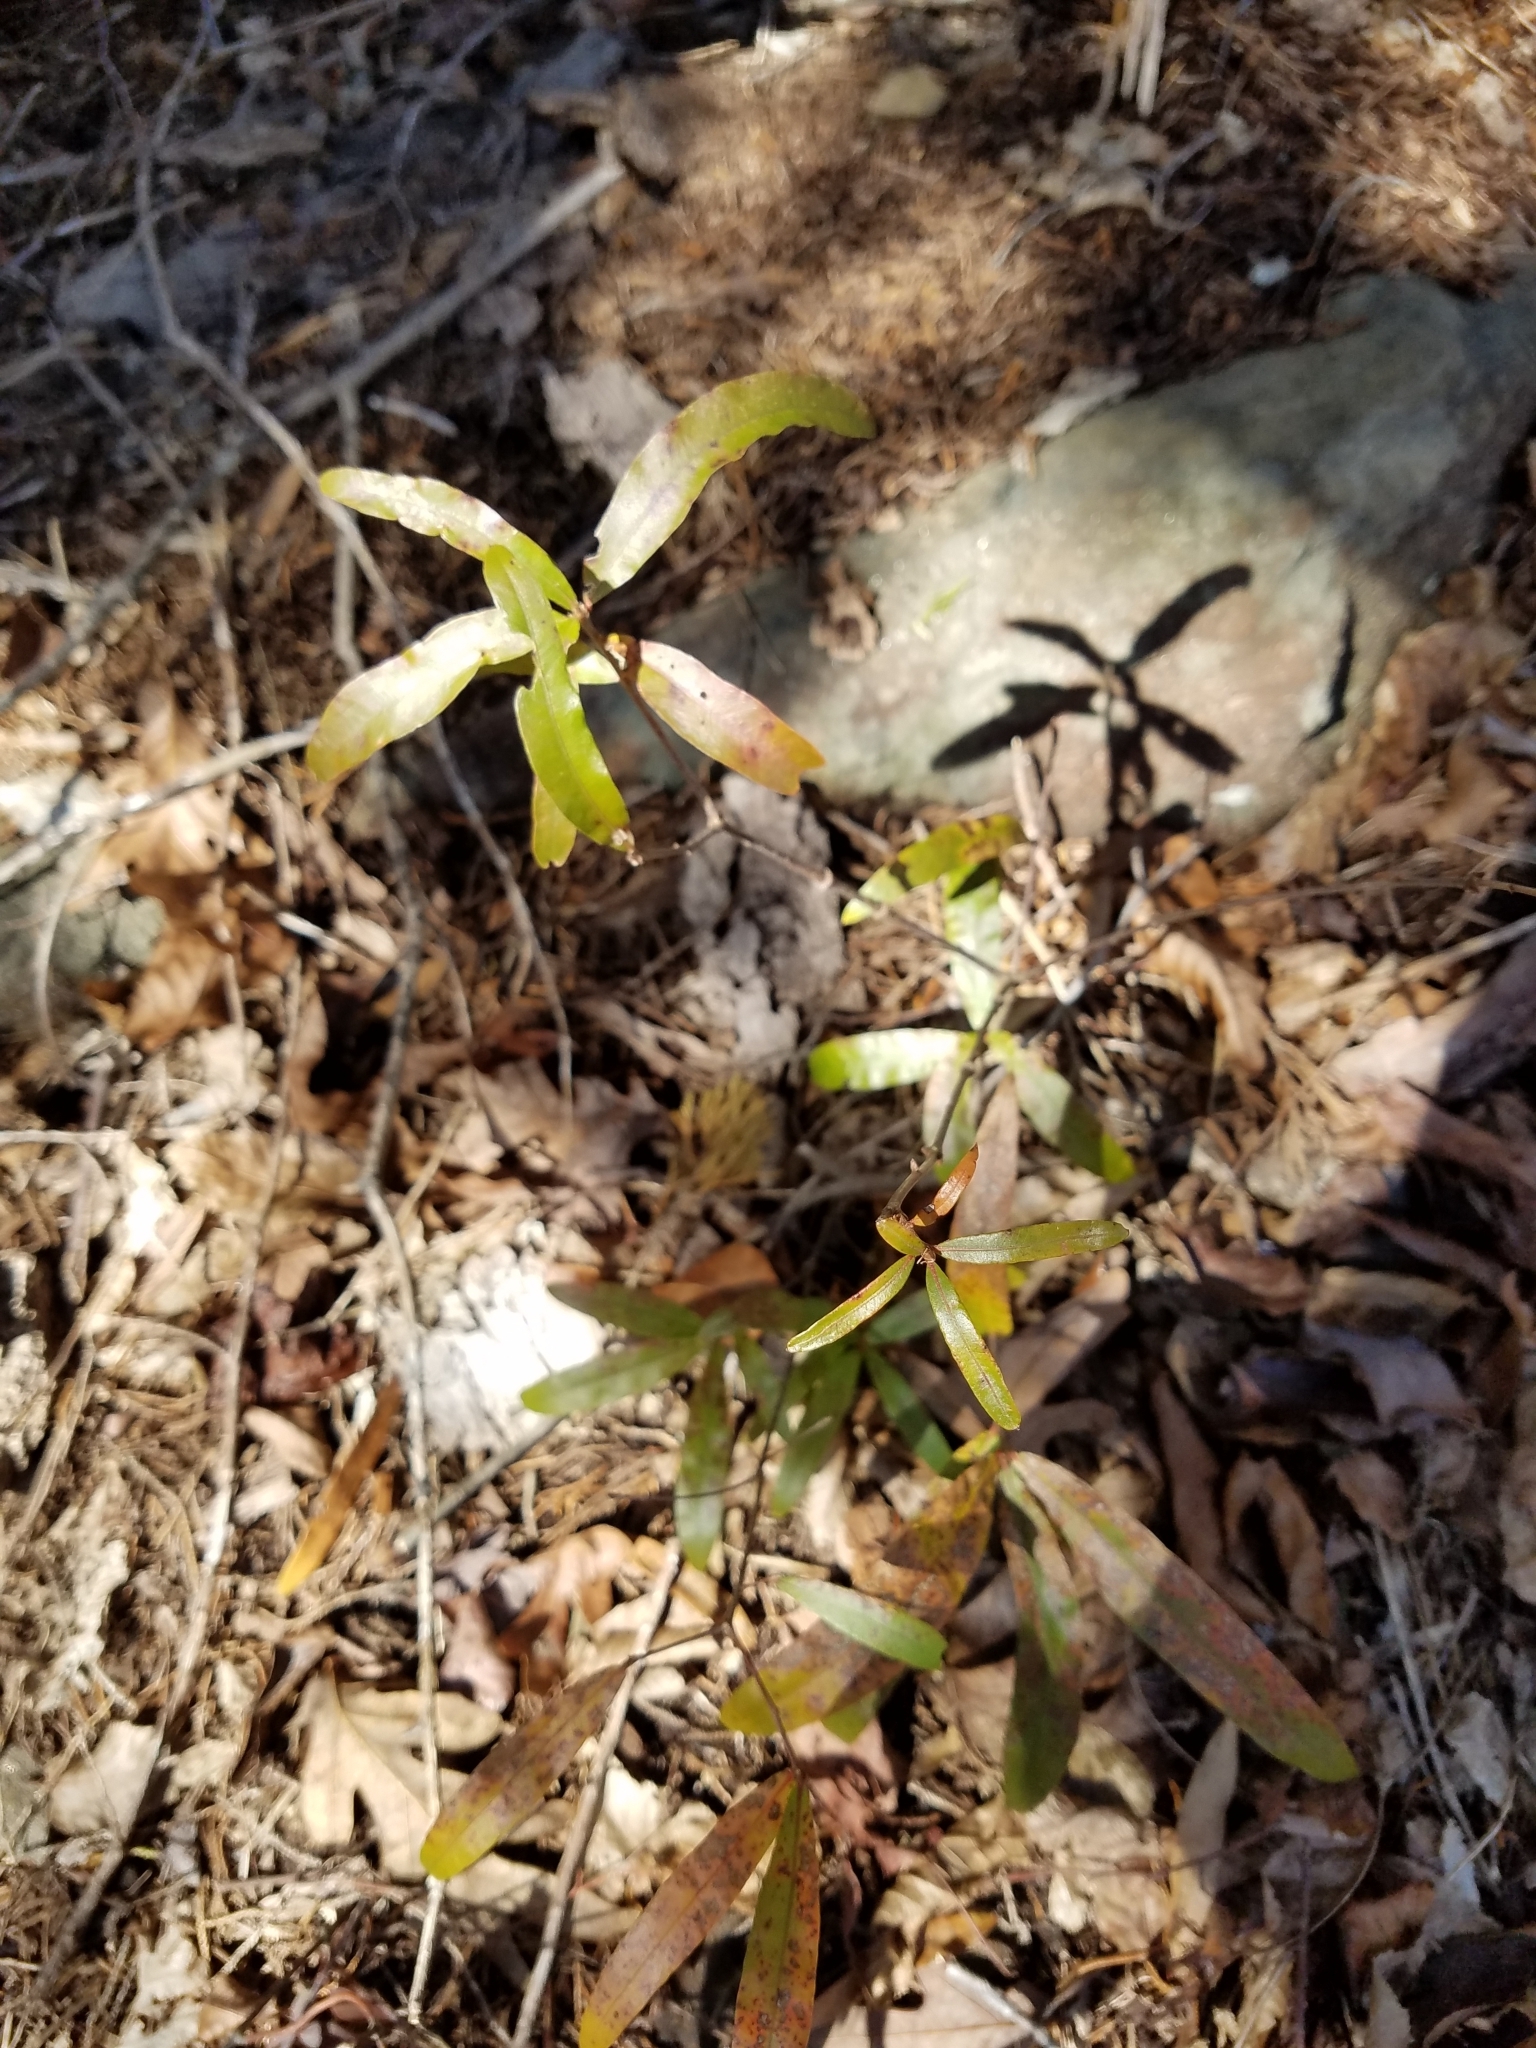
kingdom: Plantae
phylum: Tracheophyta
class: Magnoliopsida
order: Fagales
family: Fagaceae
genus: Quercus
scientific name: Quercus phellos
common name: Willow oak
